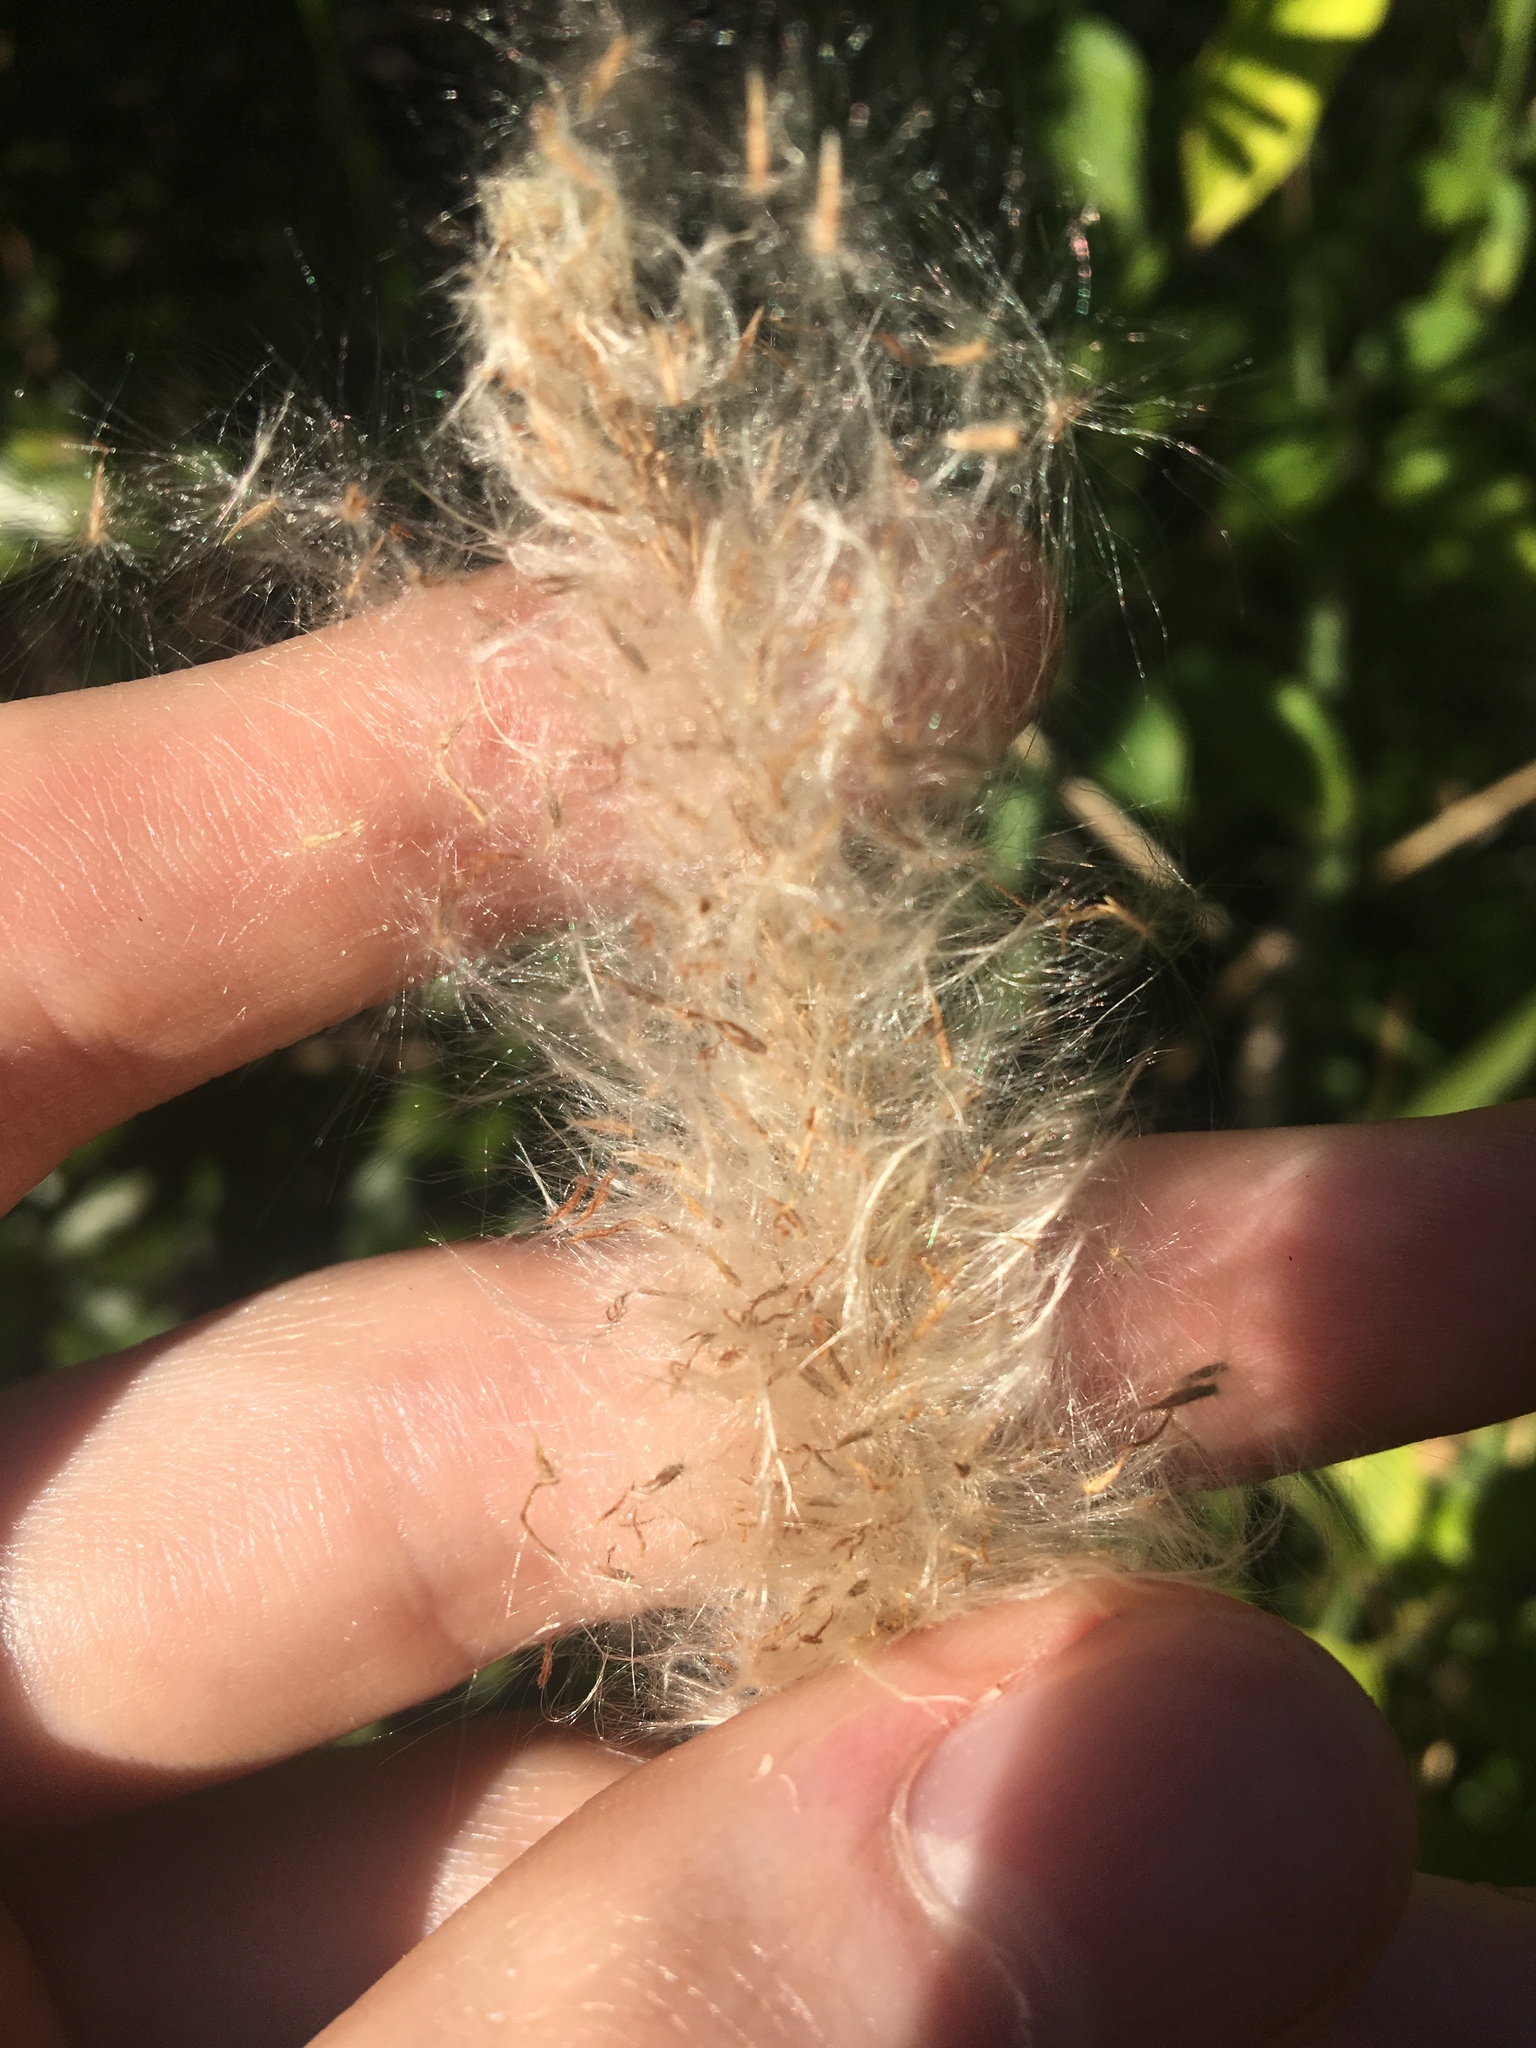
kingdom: Plantae
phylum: Tracheophyta
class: Liliopsida
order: Poales
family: Poaceae
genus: Imperata
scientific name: Imperata cylindrica
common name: Cogongrass
